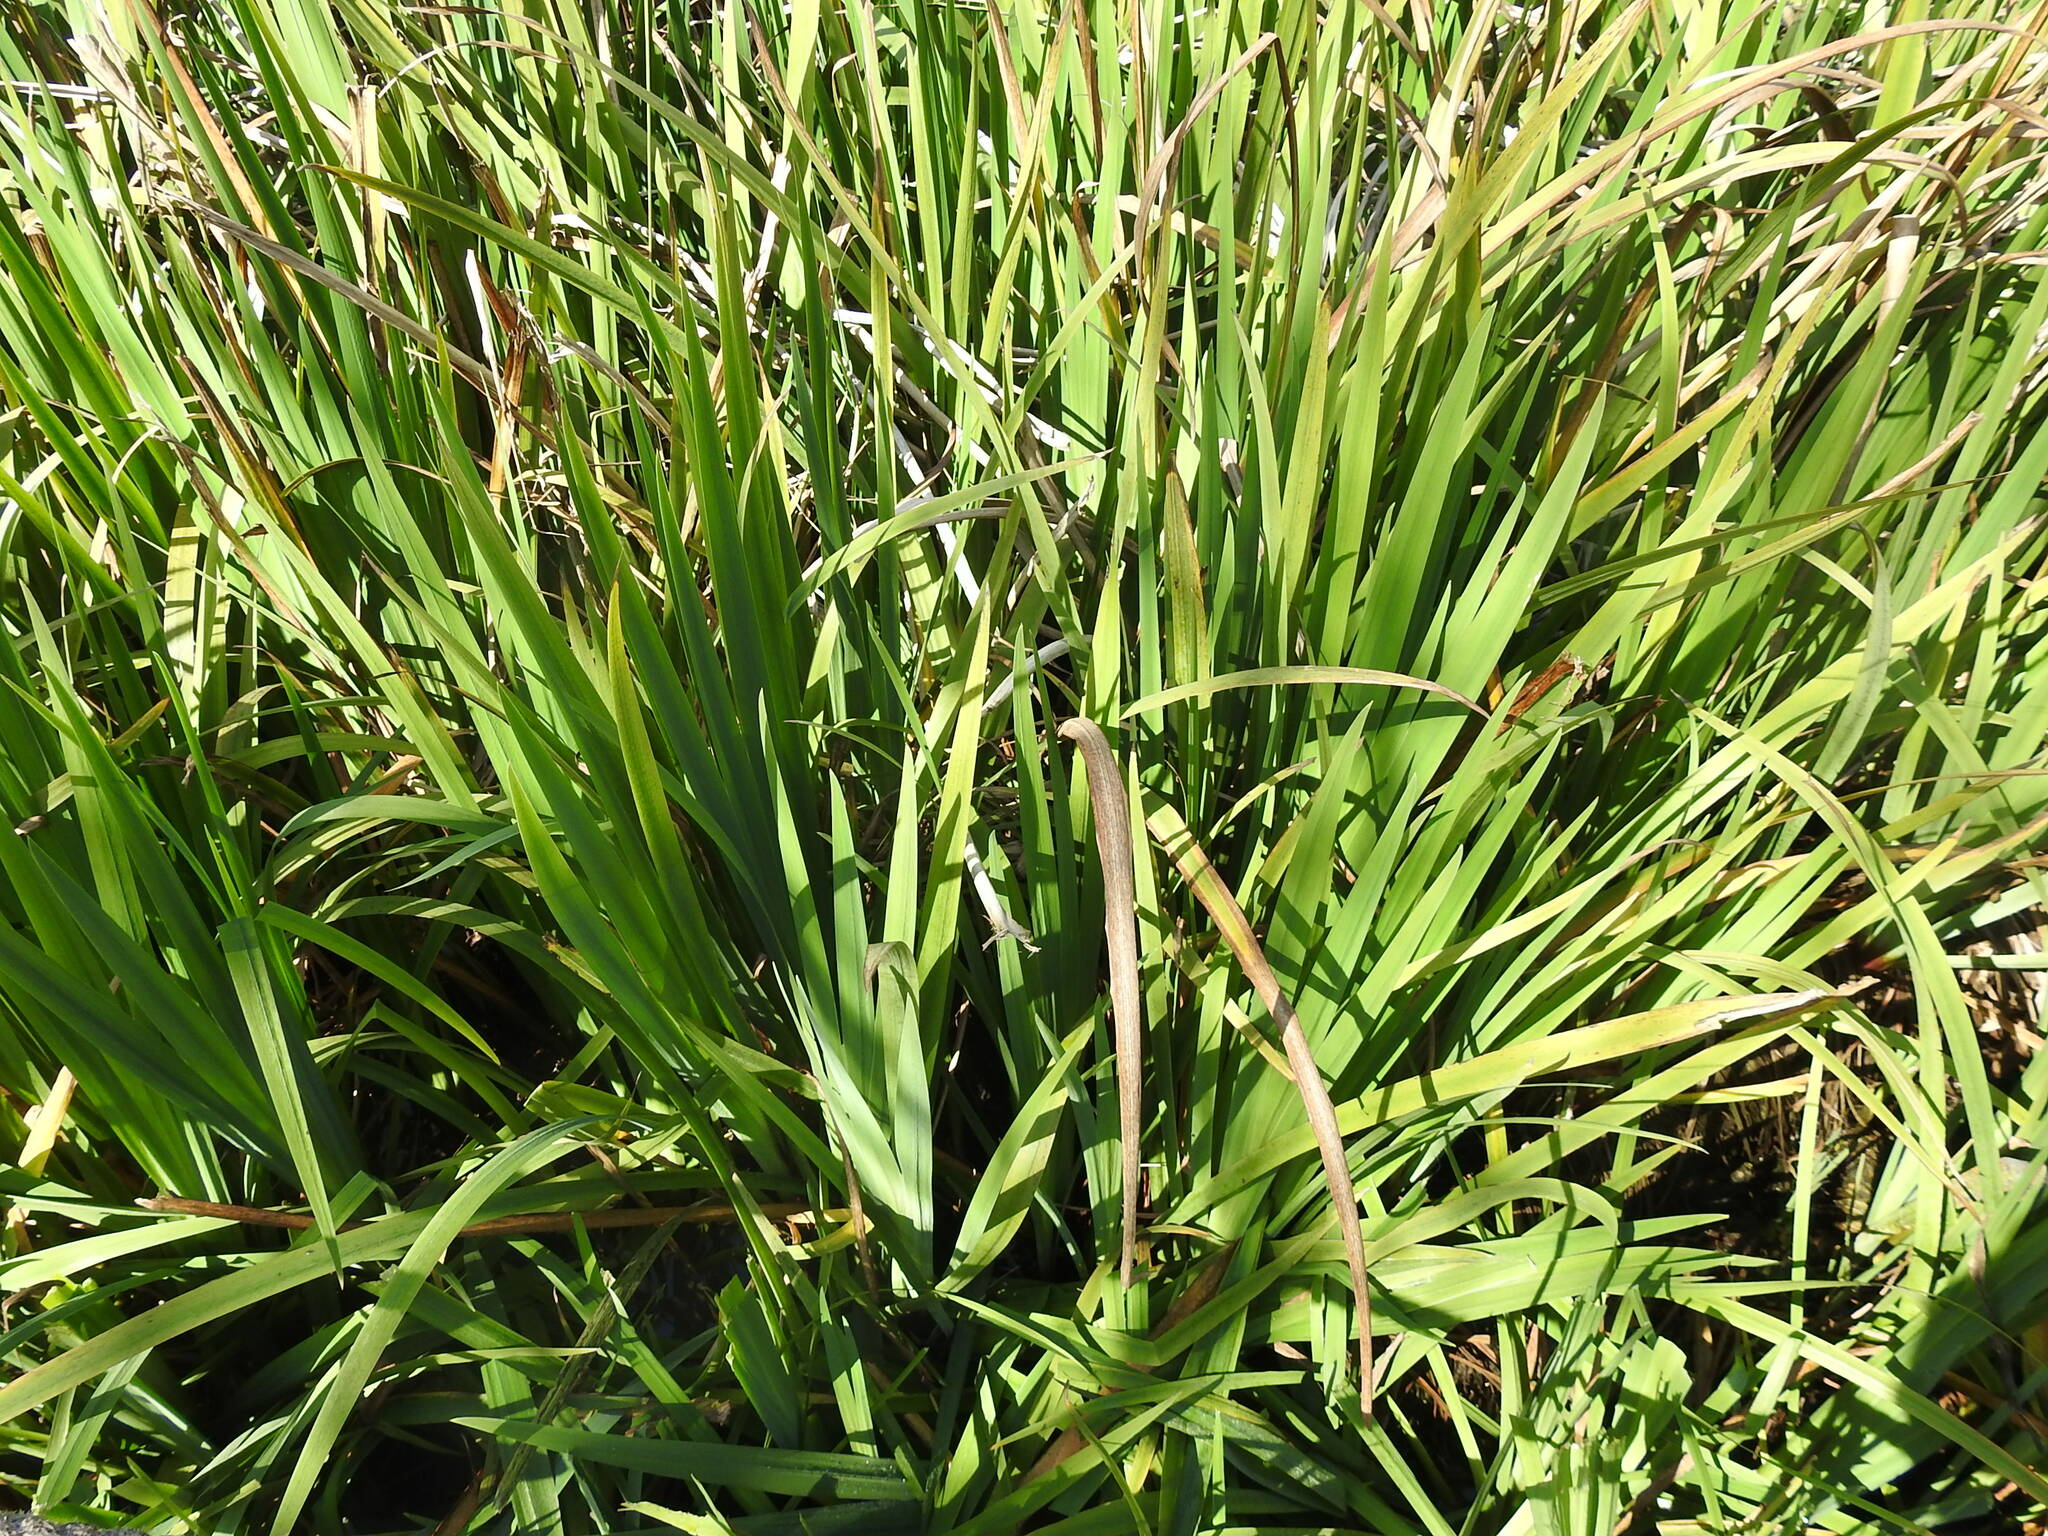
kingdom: Plantae
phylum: Tracheophyta
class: Liliopsida
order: Asparagales
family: Iridaceae
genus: Iris
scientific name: Iris pseudacorus
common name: Yellow flag
